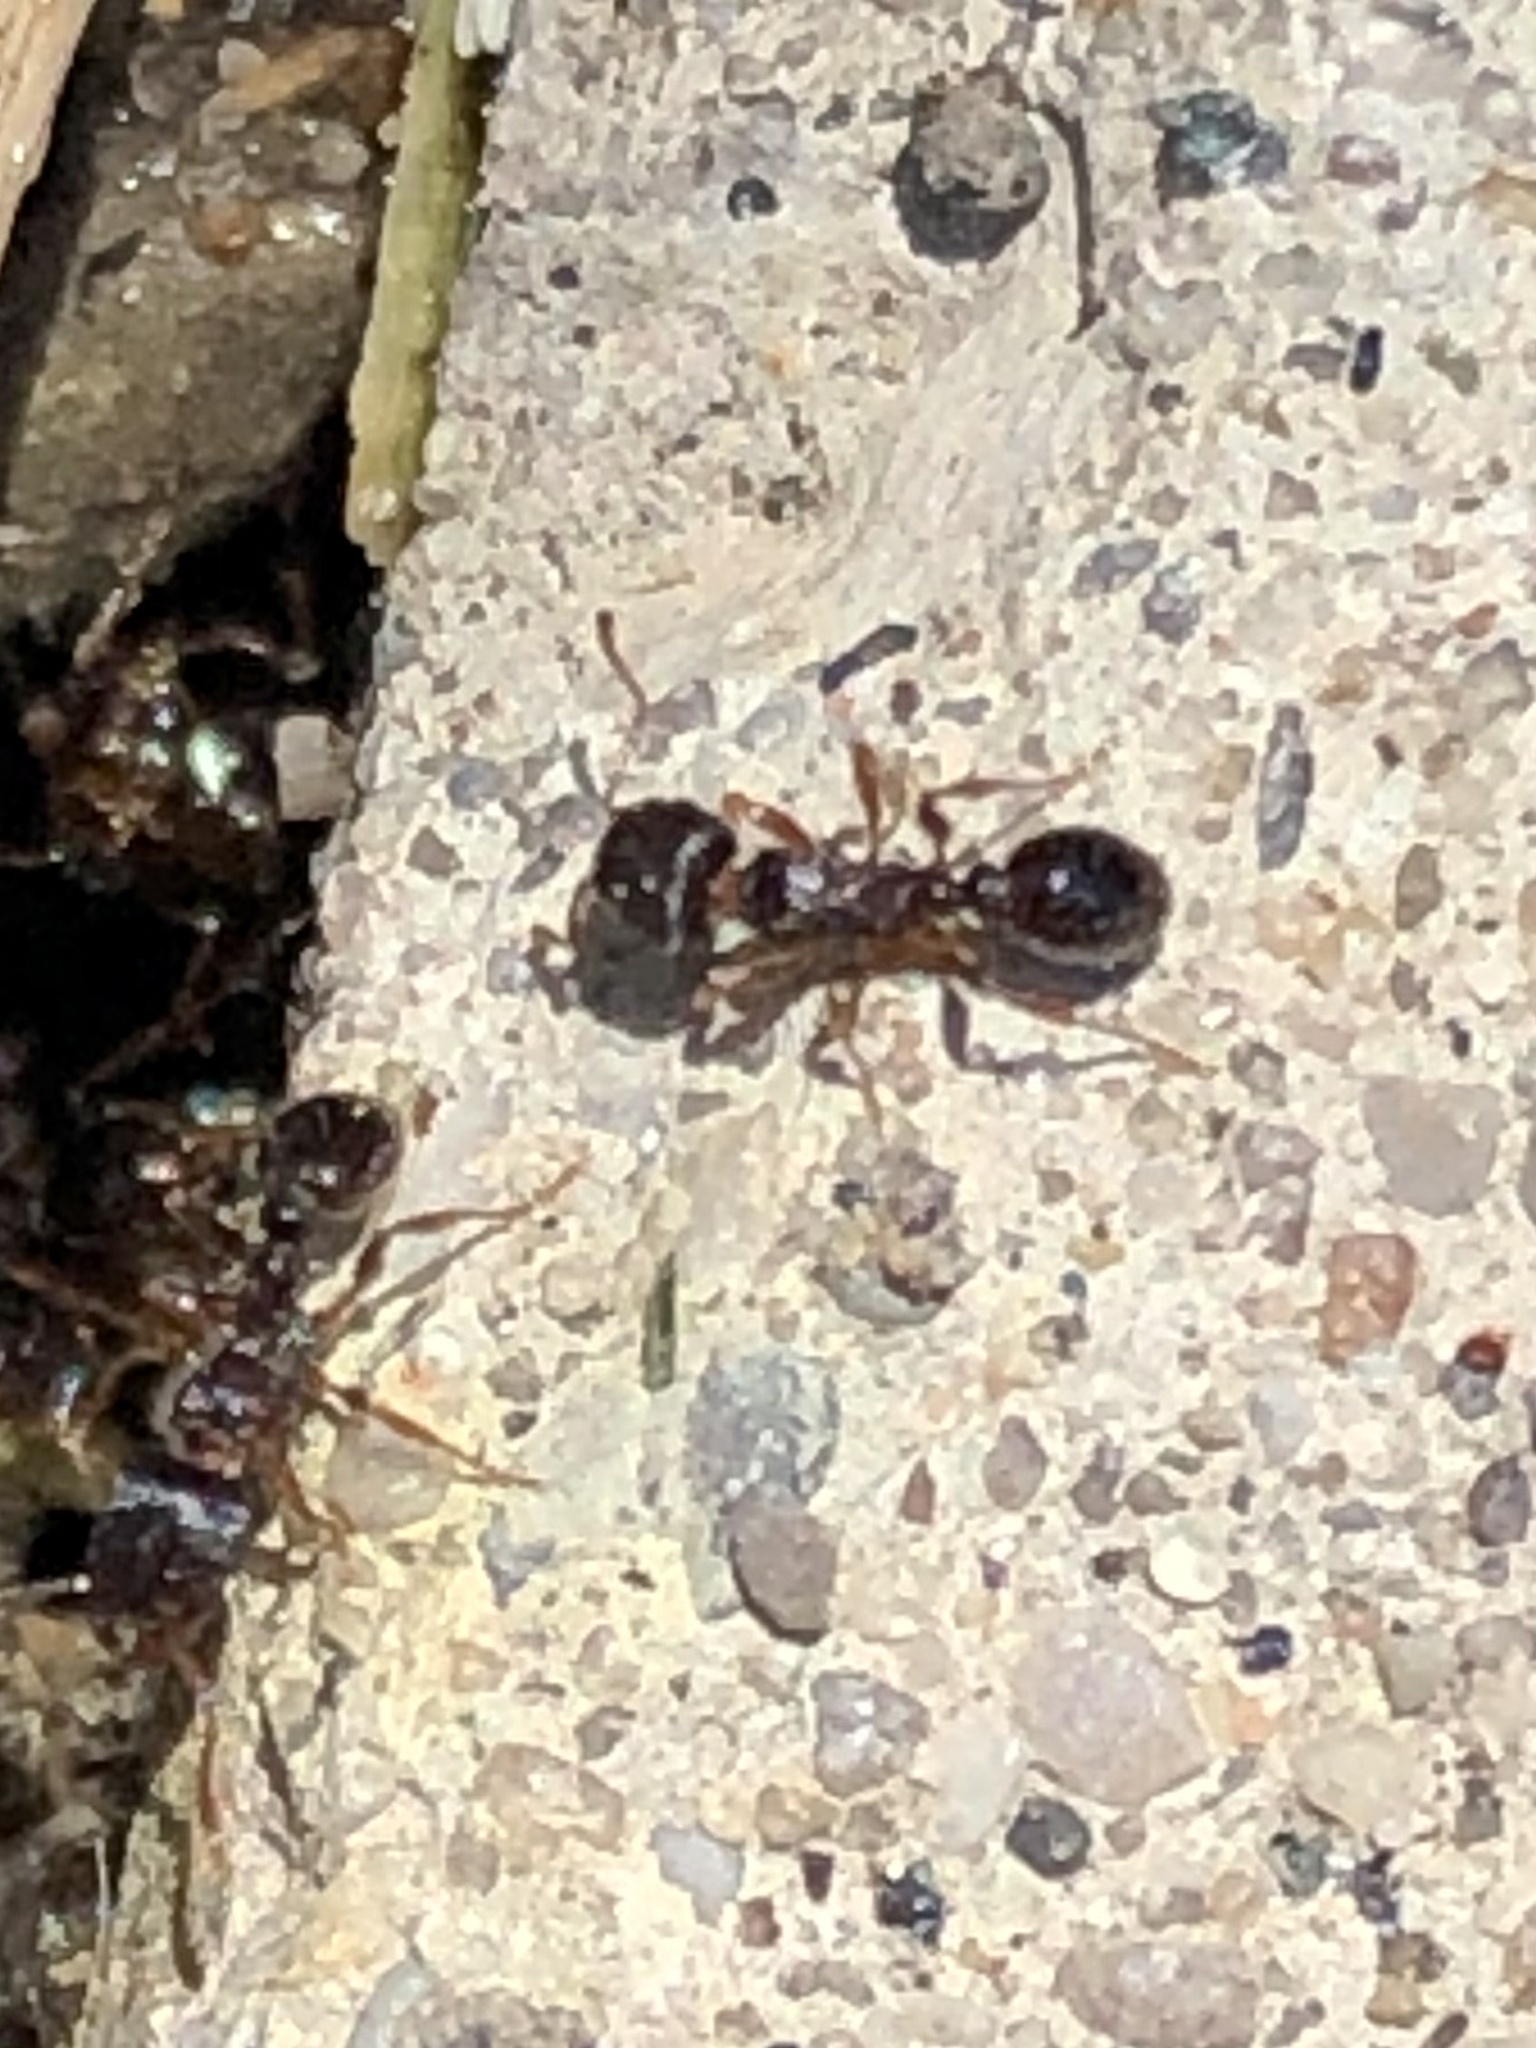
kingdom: Animalia
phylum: Arthropoda
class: Insecta
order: Hymenoptera
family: Formicidae
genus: Tetramorium
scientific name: Tetramorium immigrans
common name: Pavement ant
